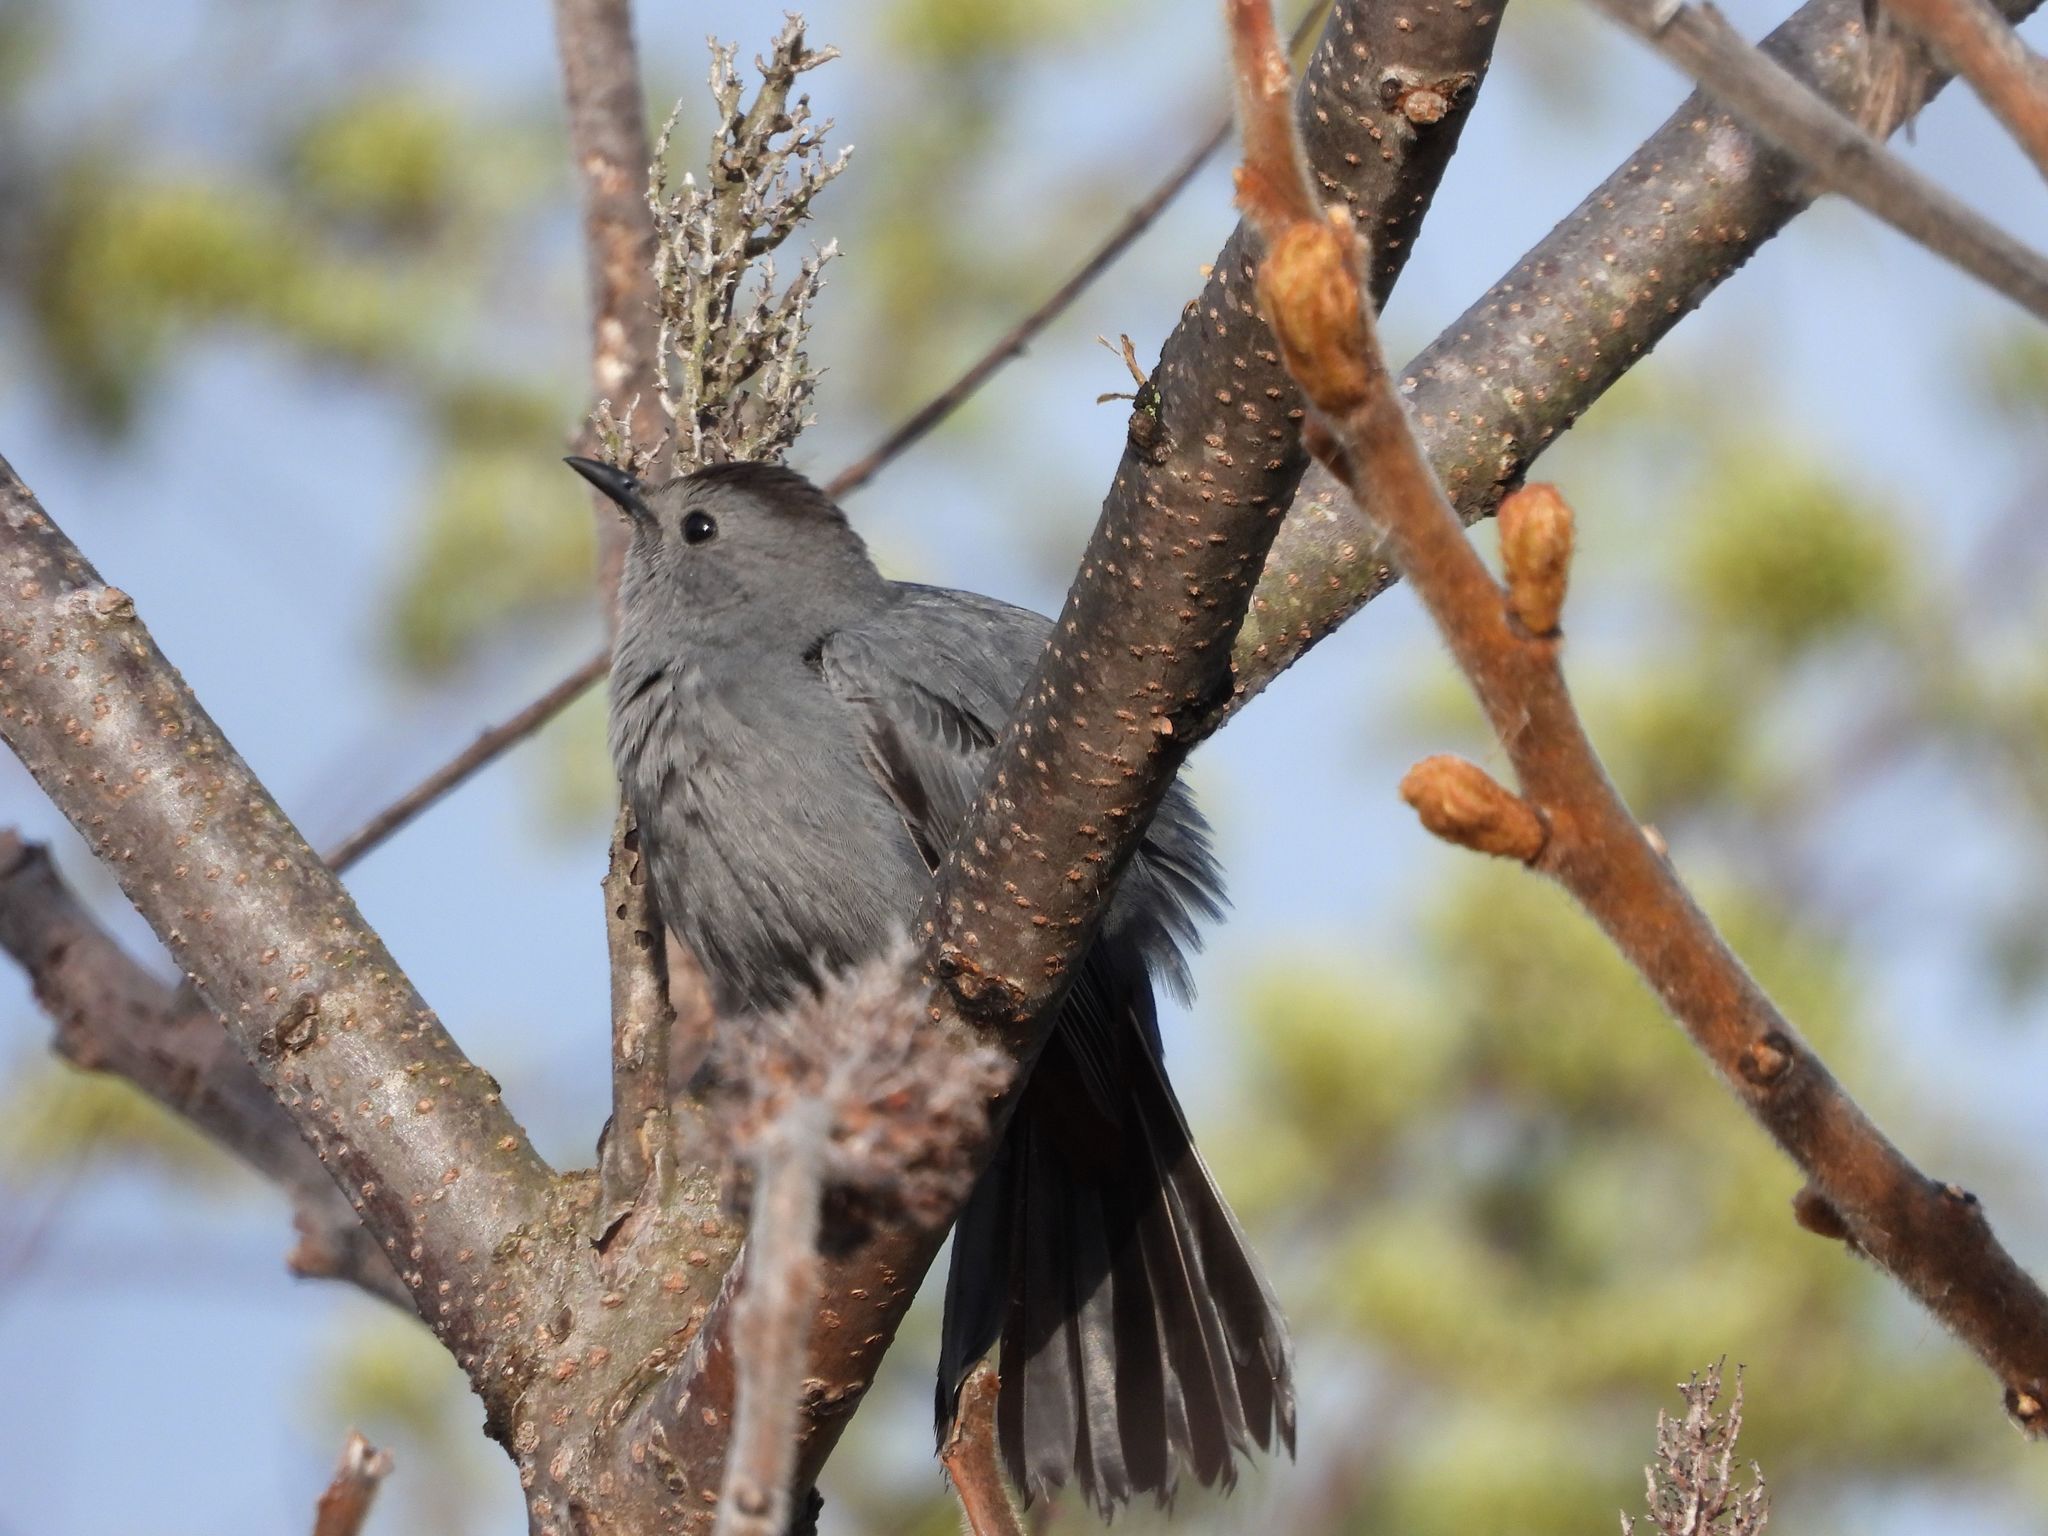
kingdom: Animalia
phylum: Chordata
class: Aves
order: Passeriformes
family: Mimidae
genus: Dumetella
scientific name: Dumetella carolinensis
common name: Gray catbird
